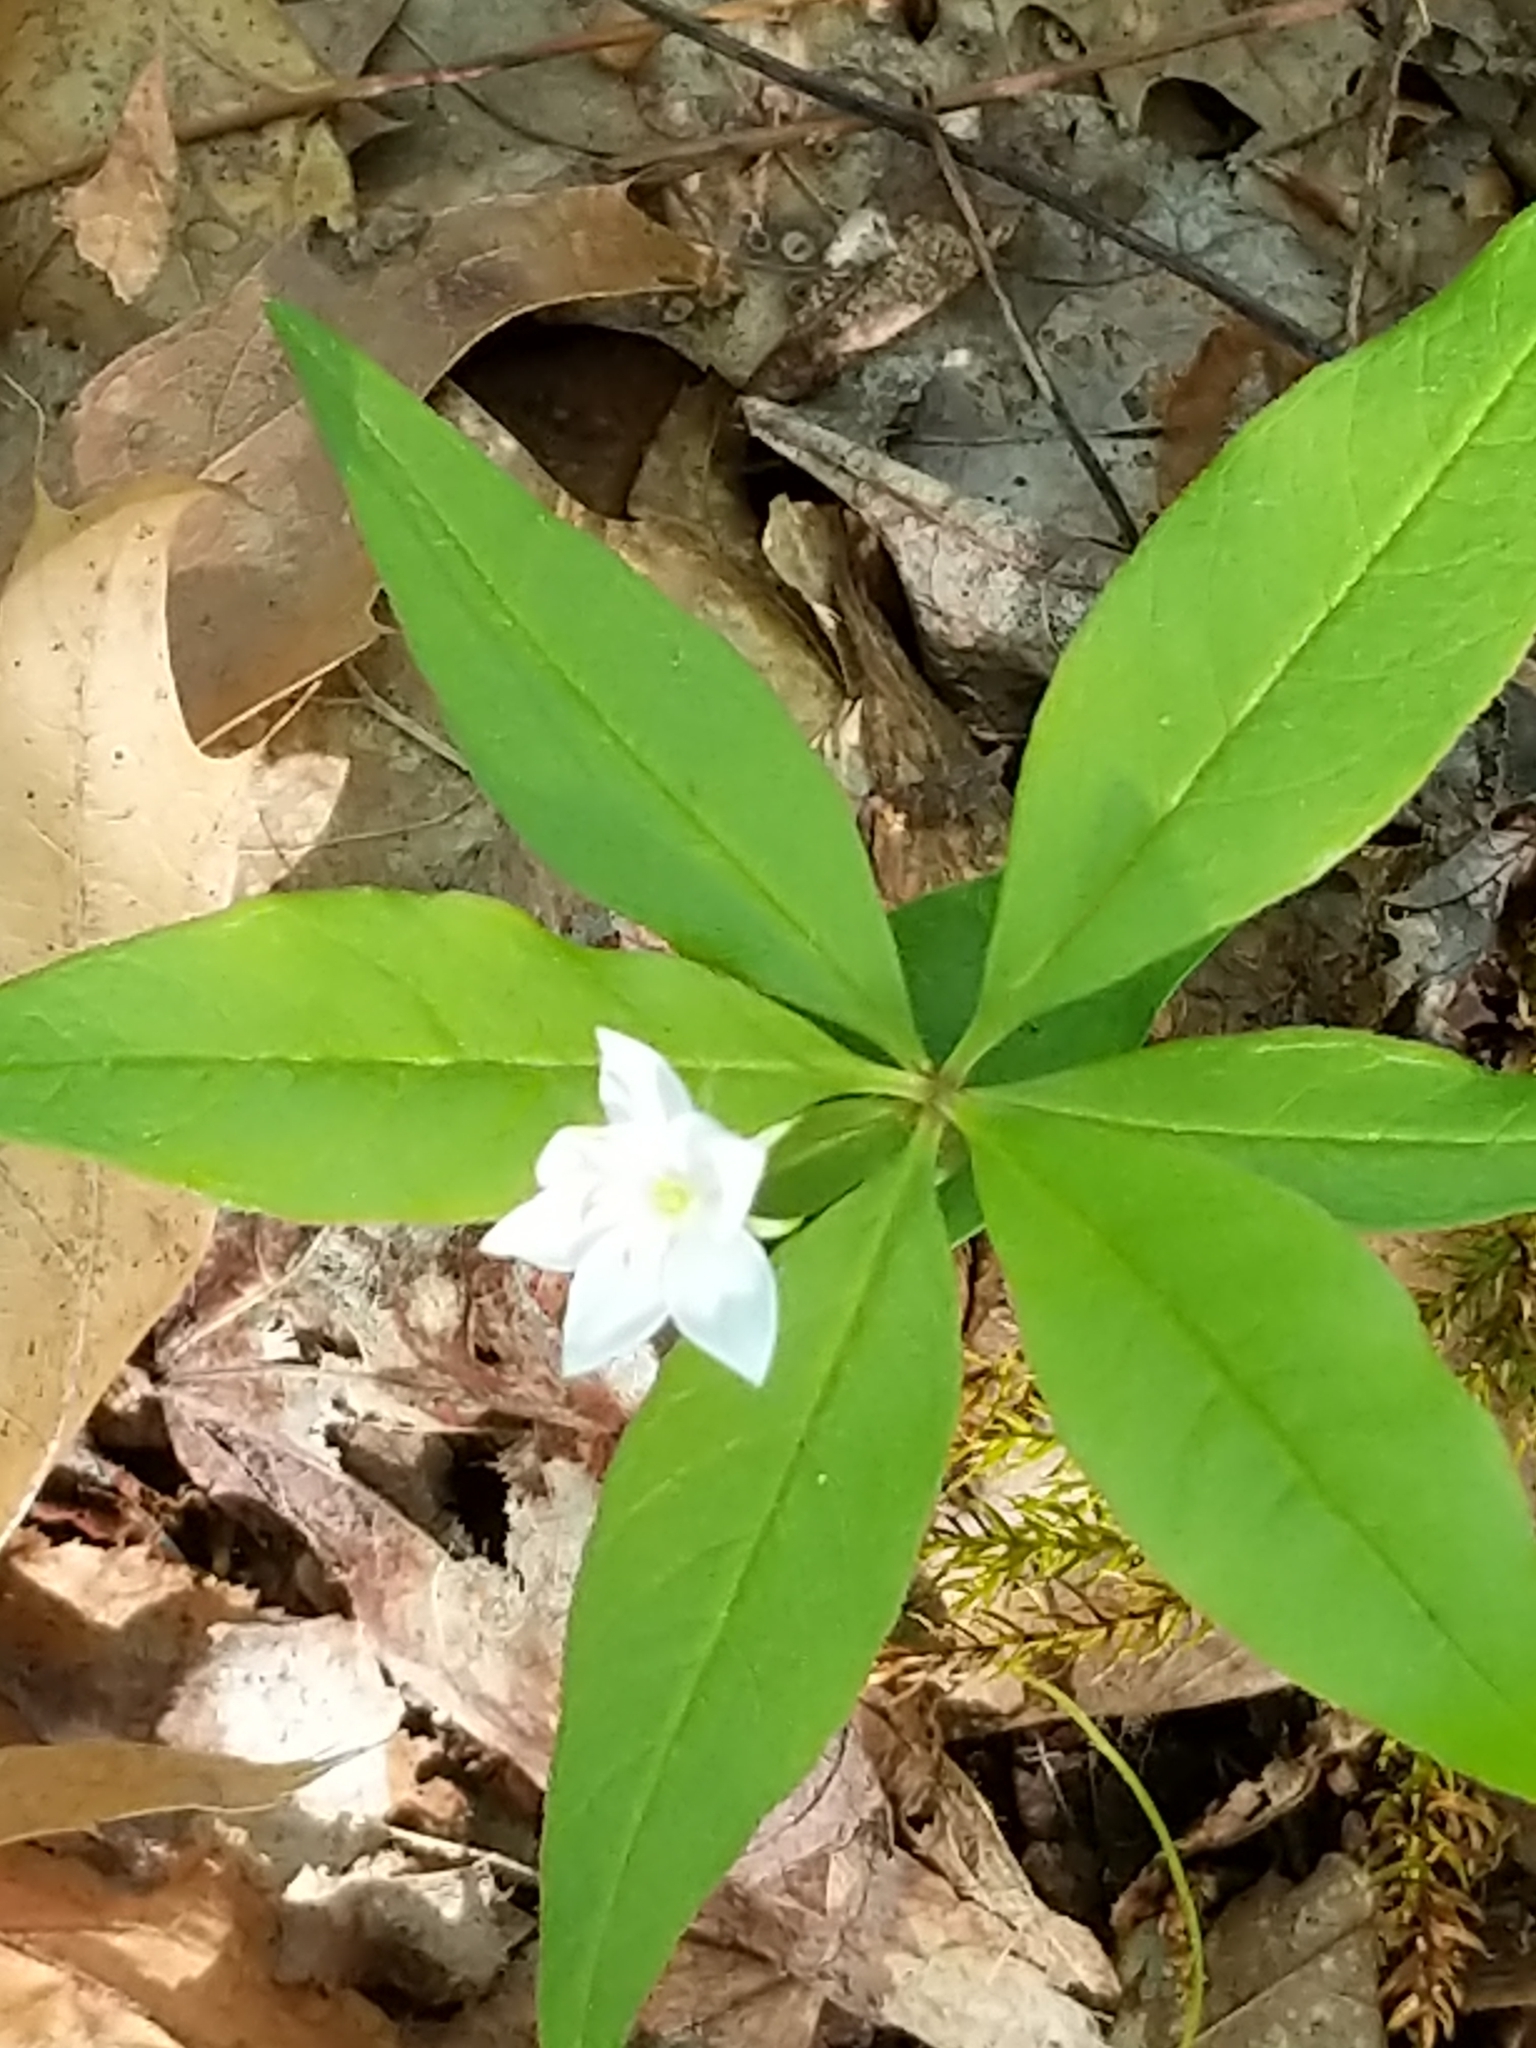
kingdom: Plantae
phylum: Tracheophyta
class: Magnoliopsida
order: Ericales
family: Primulaceae
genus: Lysimachia
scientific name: Lysimachia borealis
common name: American starflower
